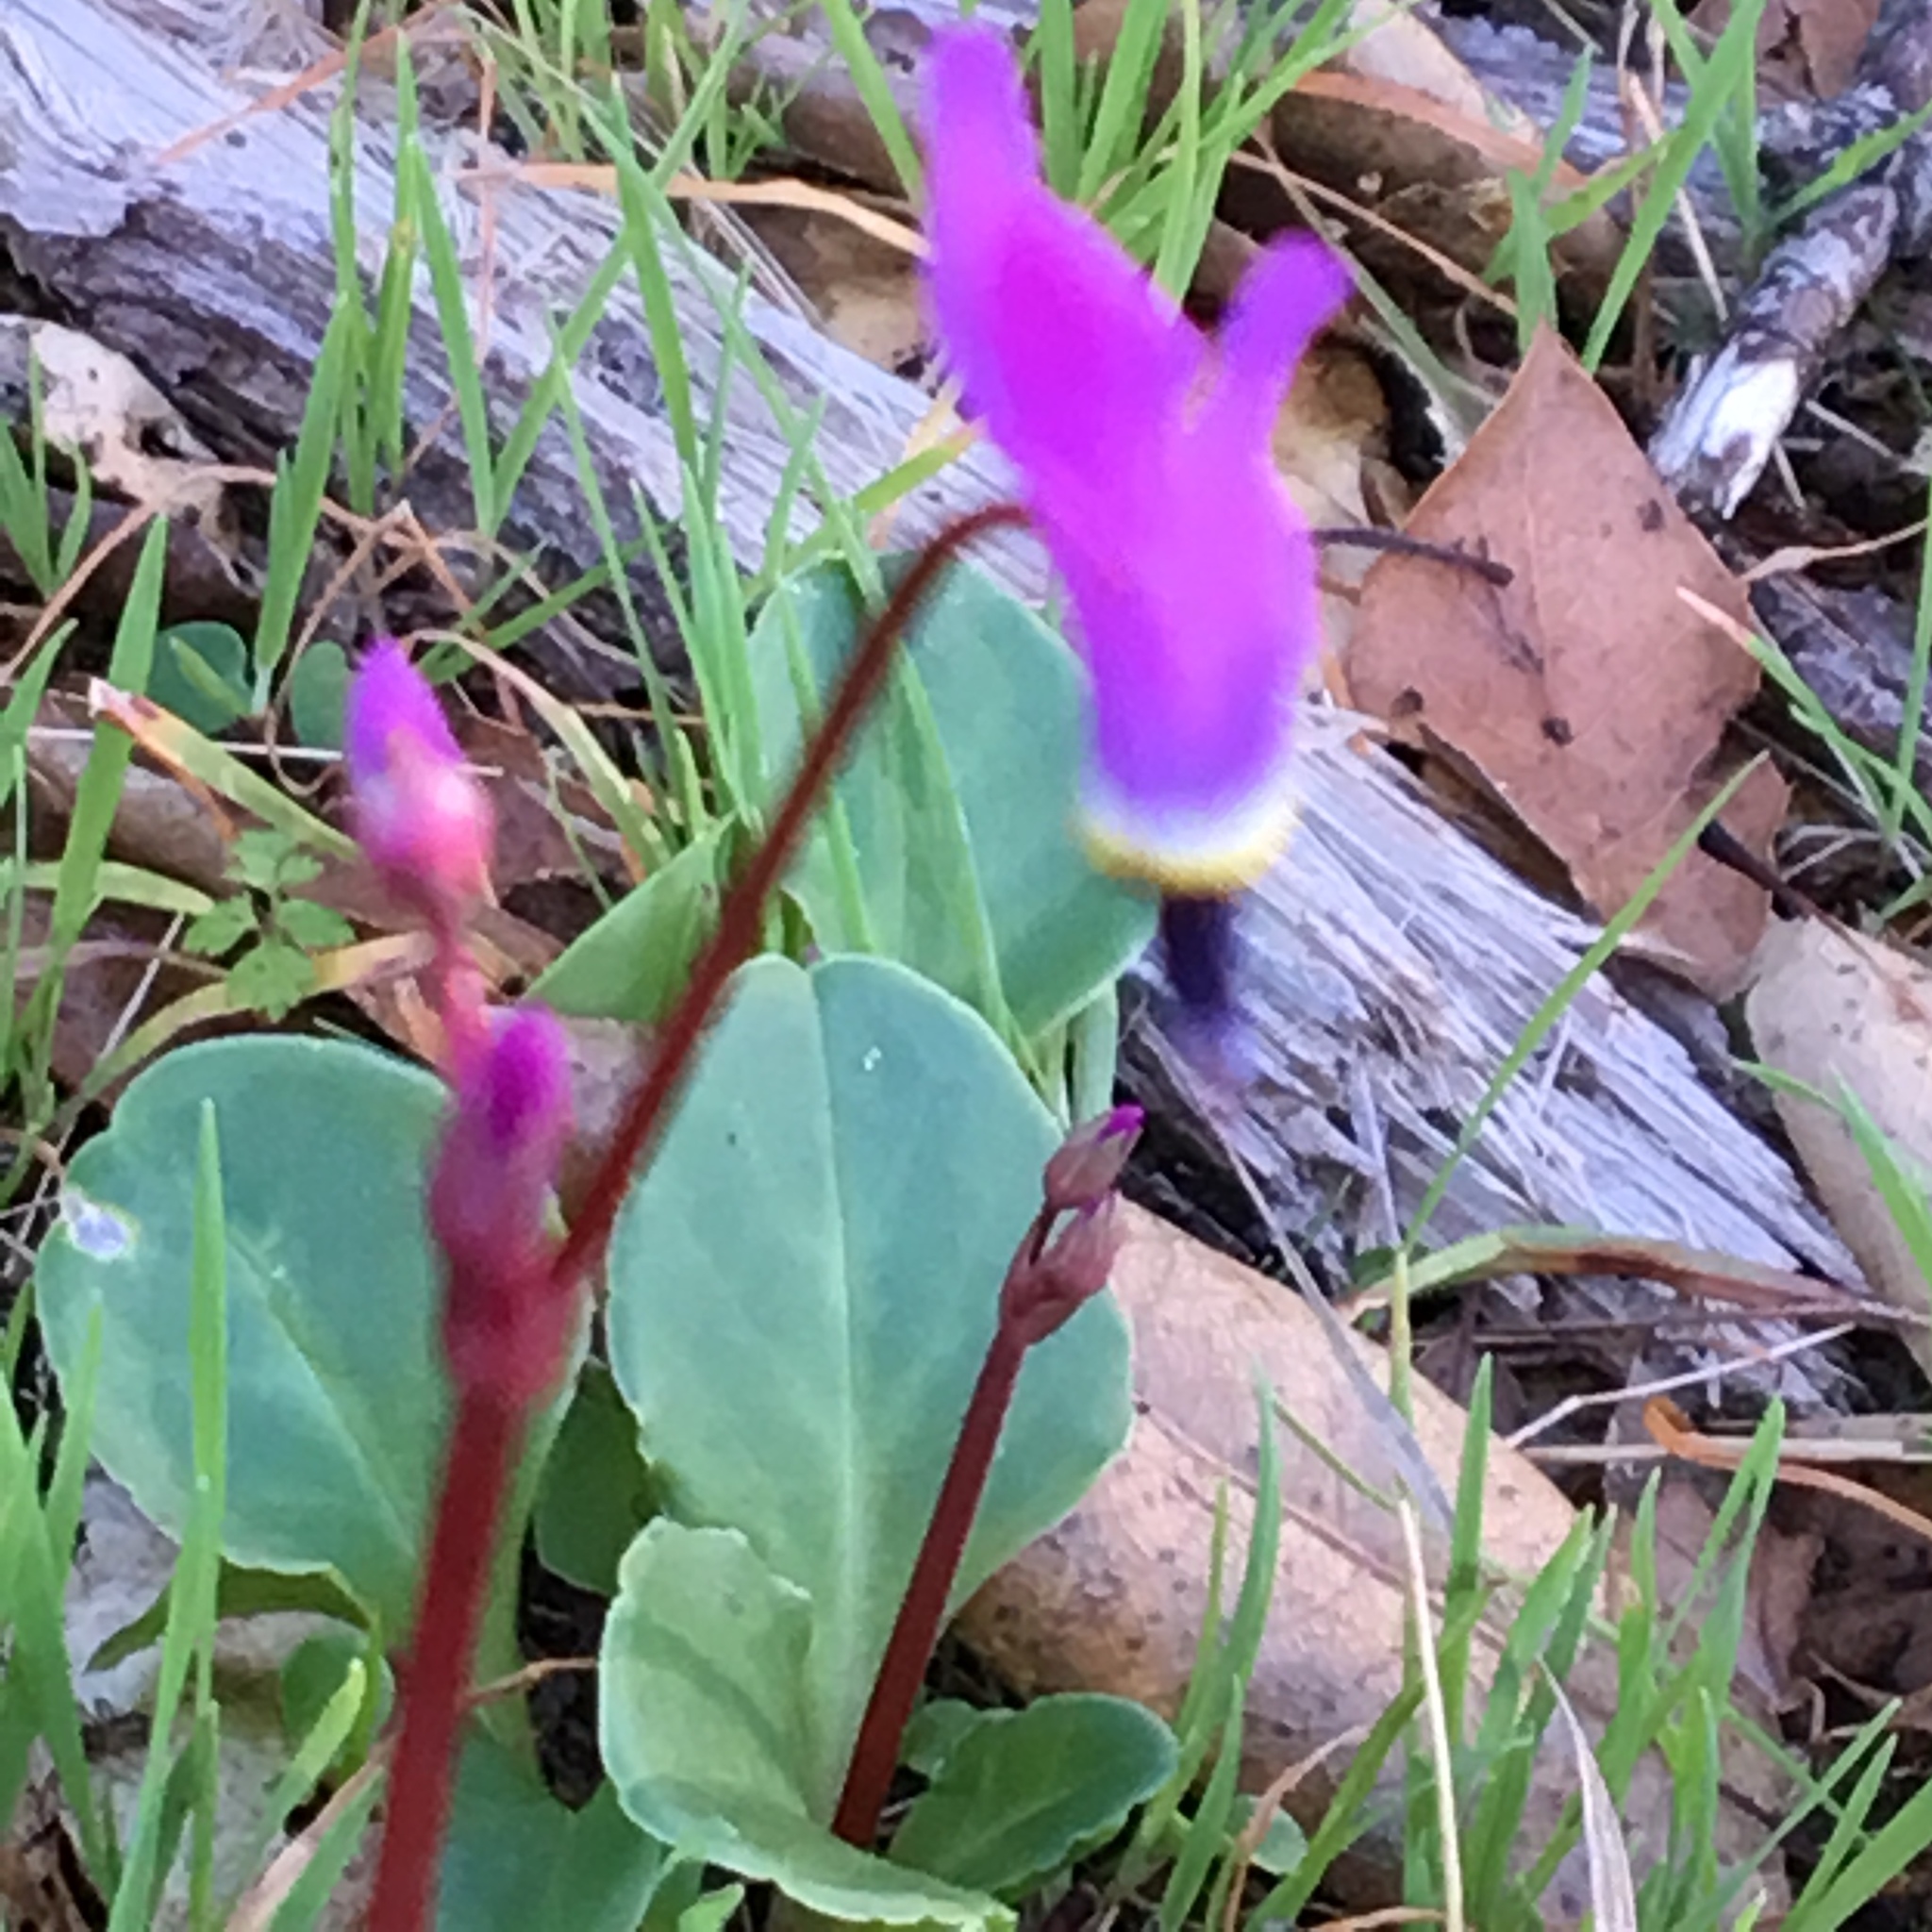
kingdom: Plantae
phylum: Tracheophyta
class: Magnoliopsida
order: Ericales
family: Primulaceae
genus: Dodecatheon
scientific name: Dodecatheon hendersonii
